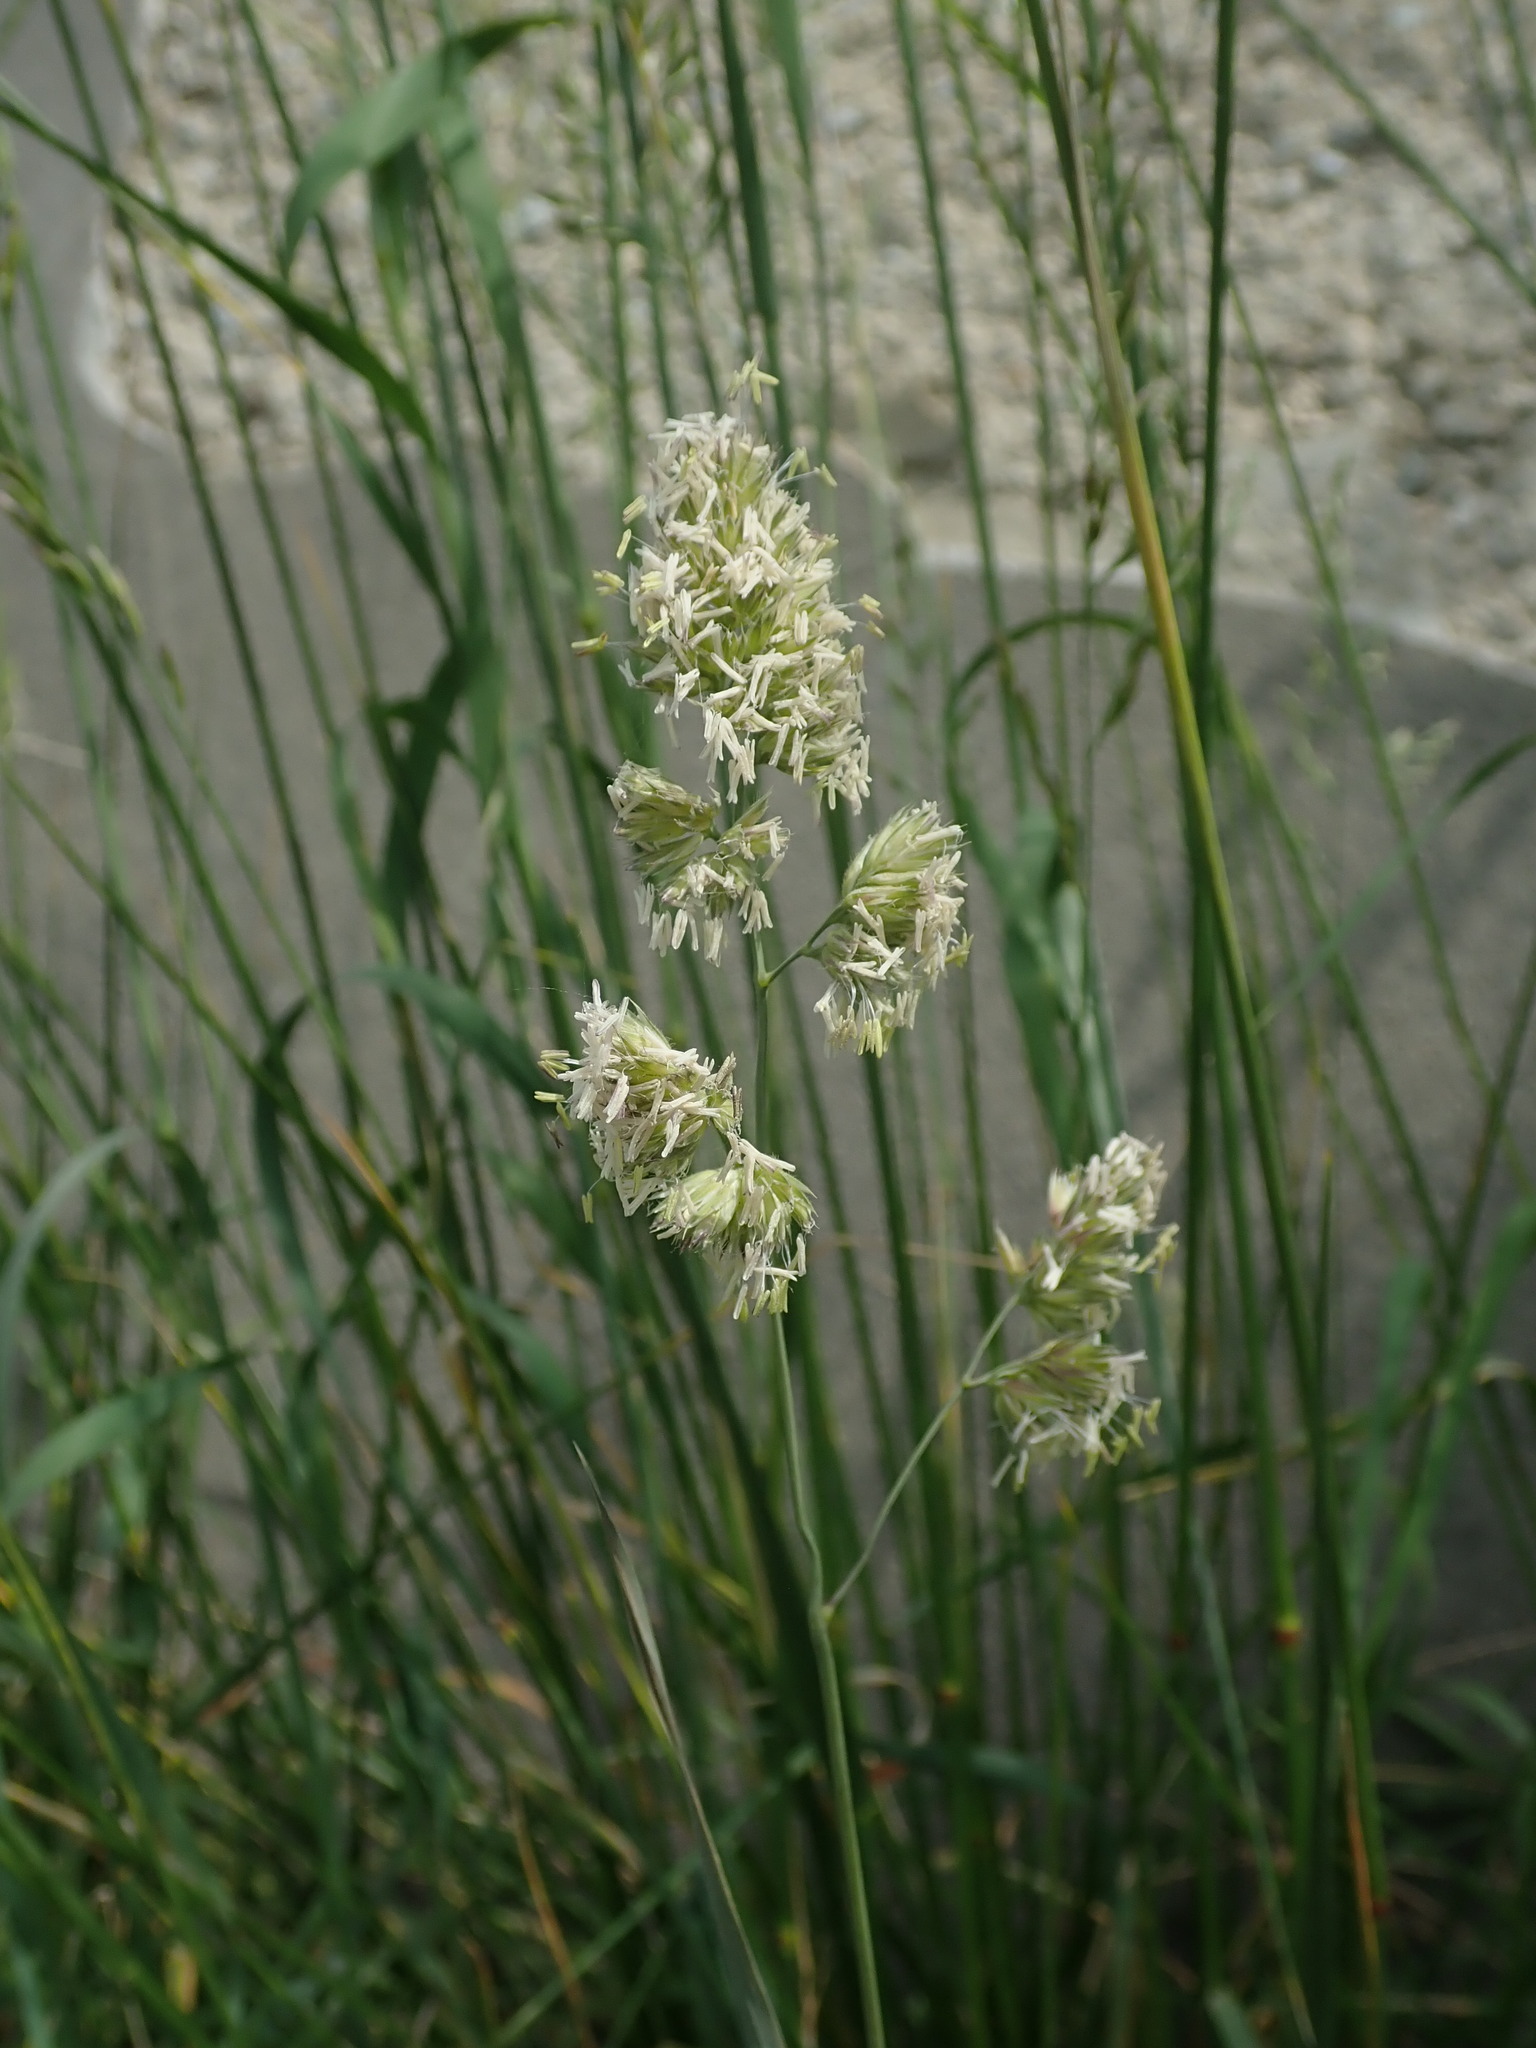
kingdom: Plantae
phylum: Tracheophyta
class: Liliopsida
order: Poales
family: Poaceae
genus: Dactylis
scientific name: Dactylis glomerata
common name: Orchardgrass
